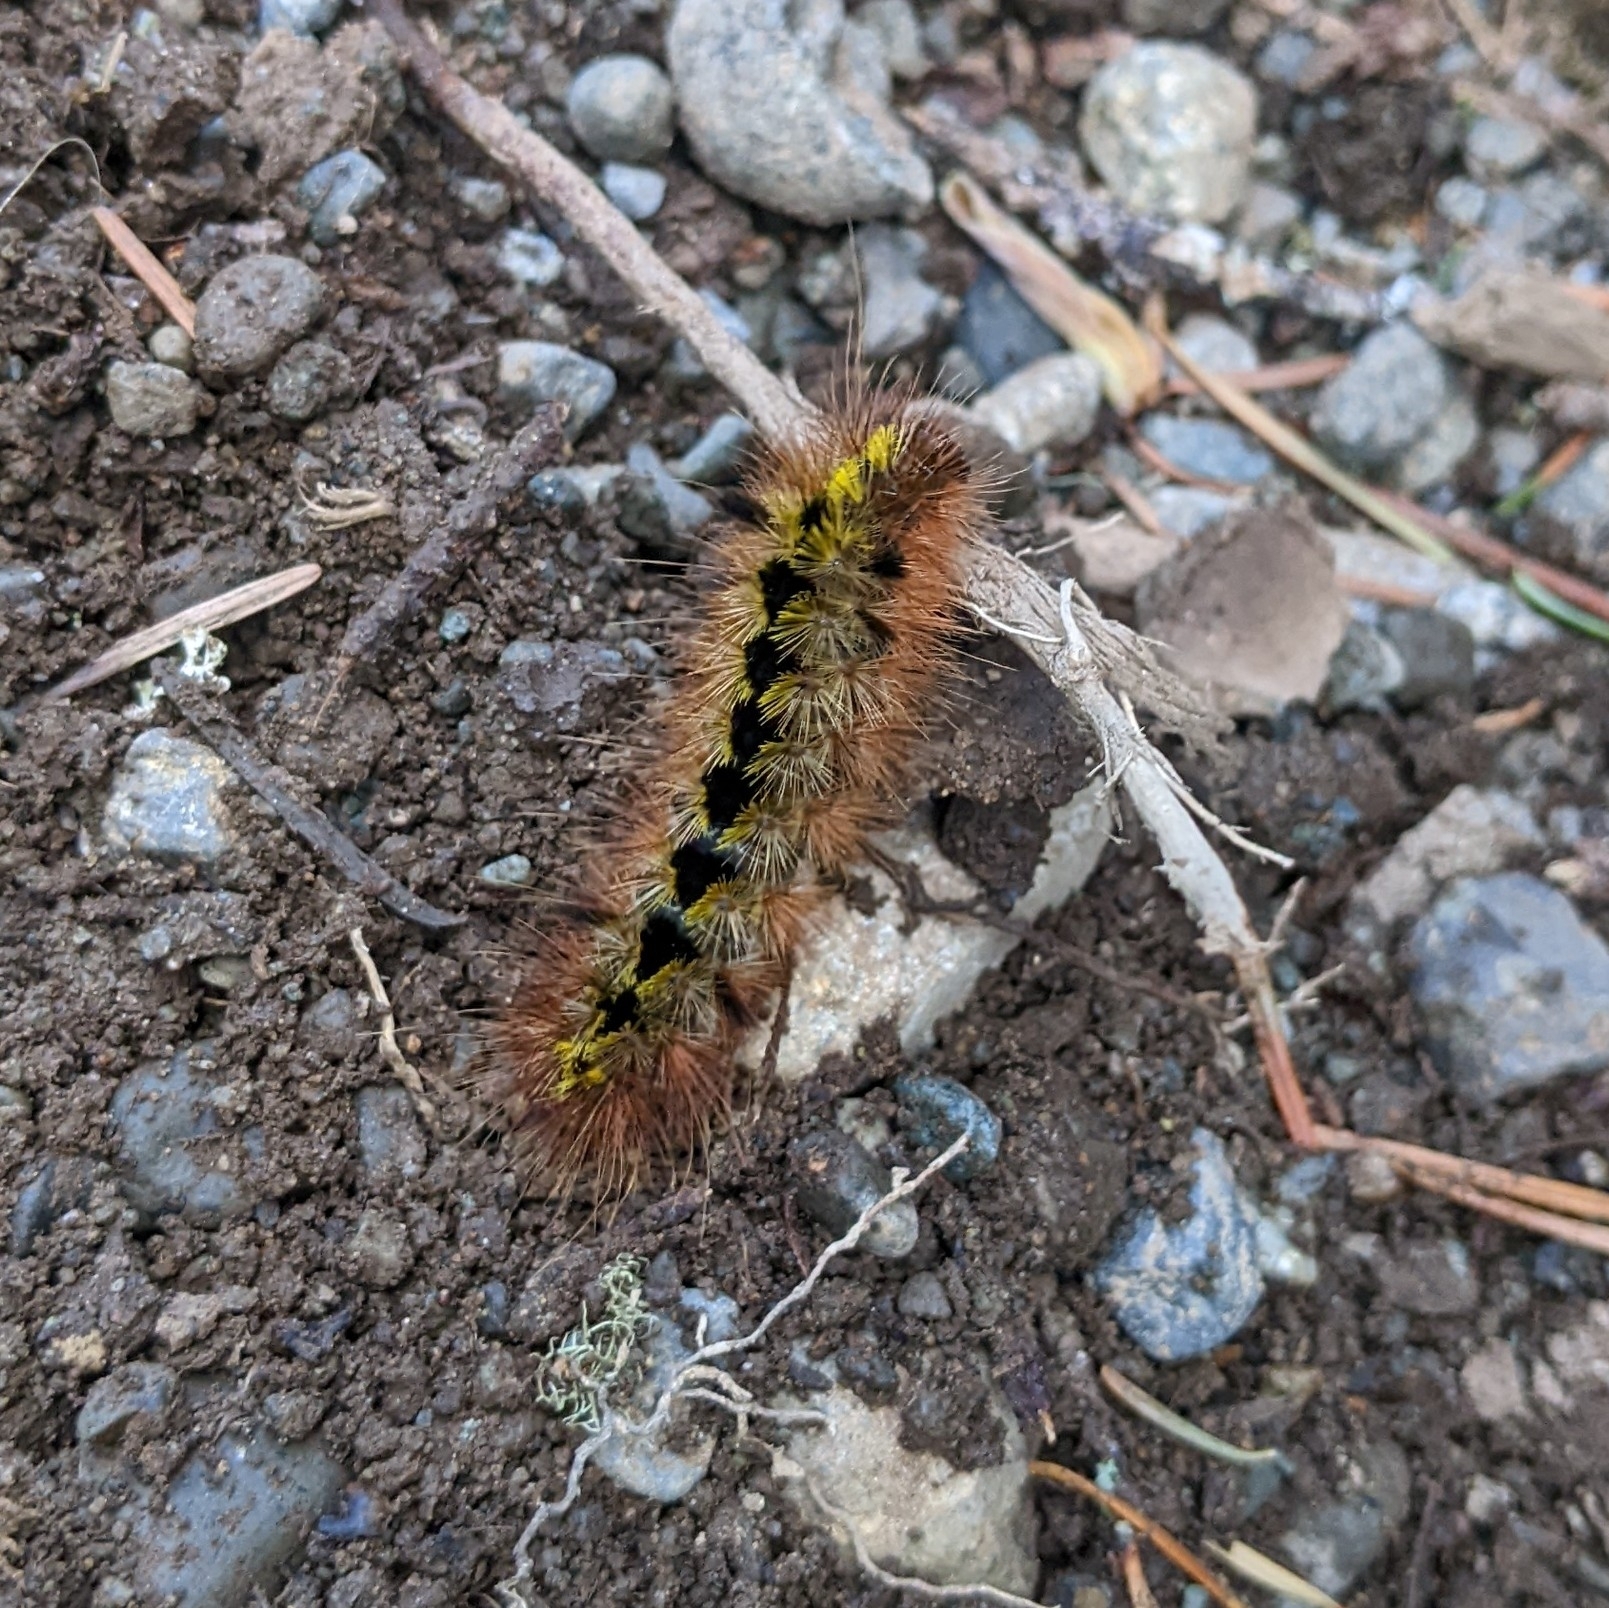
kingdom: Animalia
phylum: Arthropoda
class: Insecta
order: Lepidoptera
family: Erebidae
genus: Lophocampa
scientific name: Lophocampa argentata
